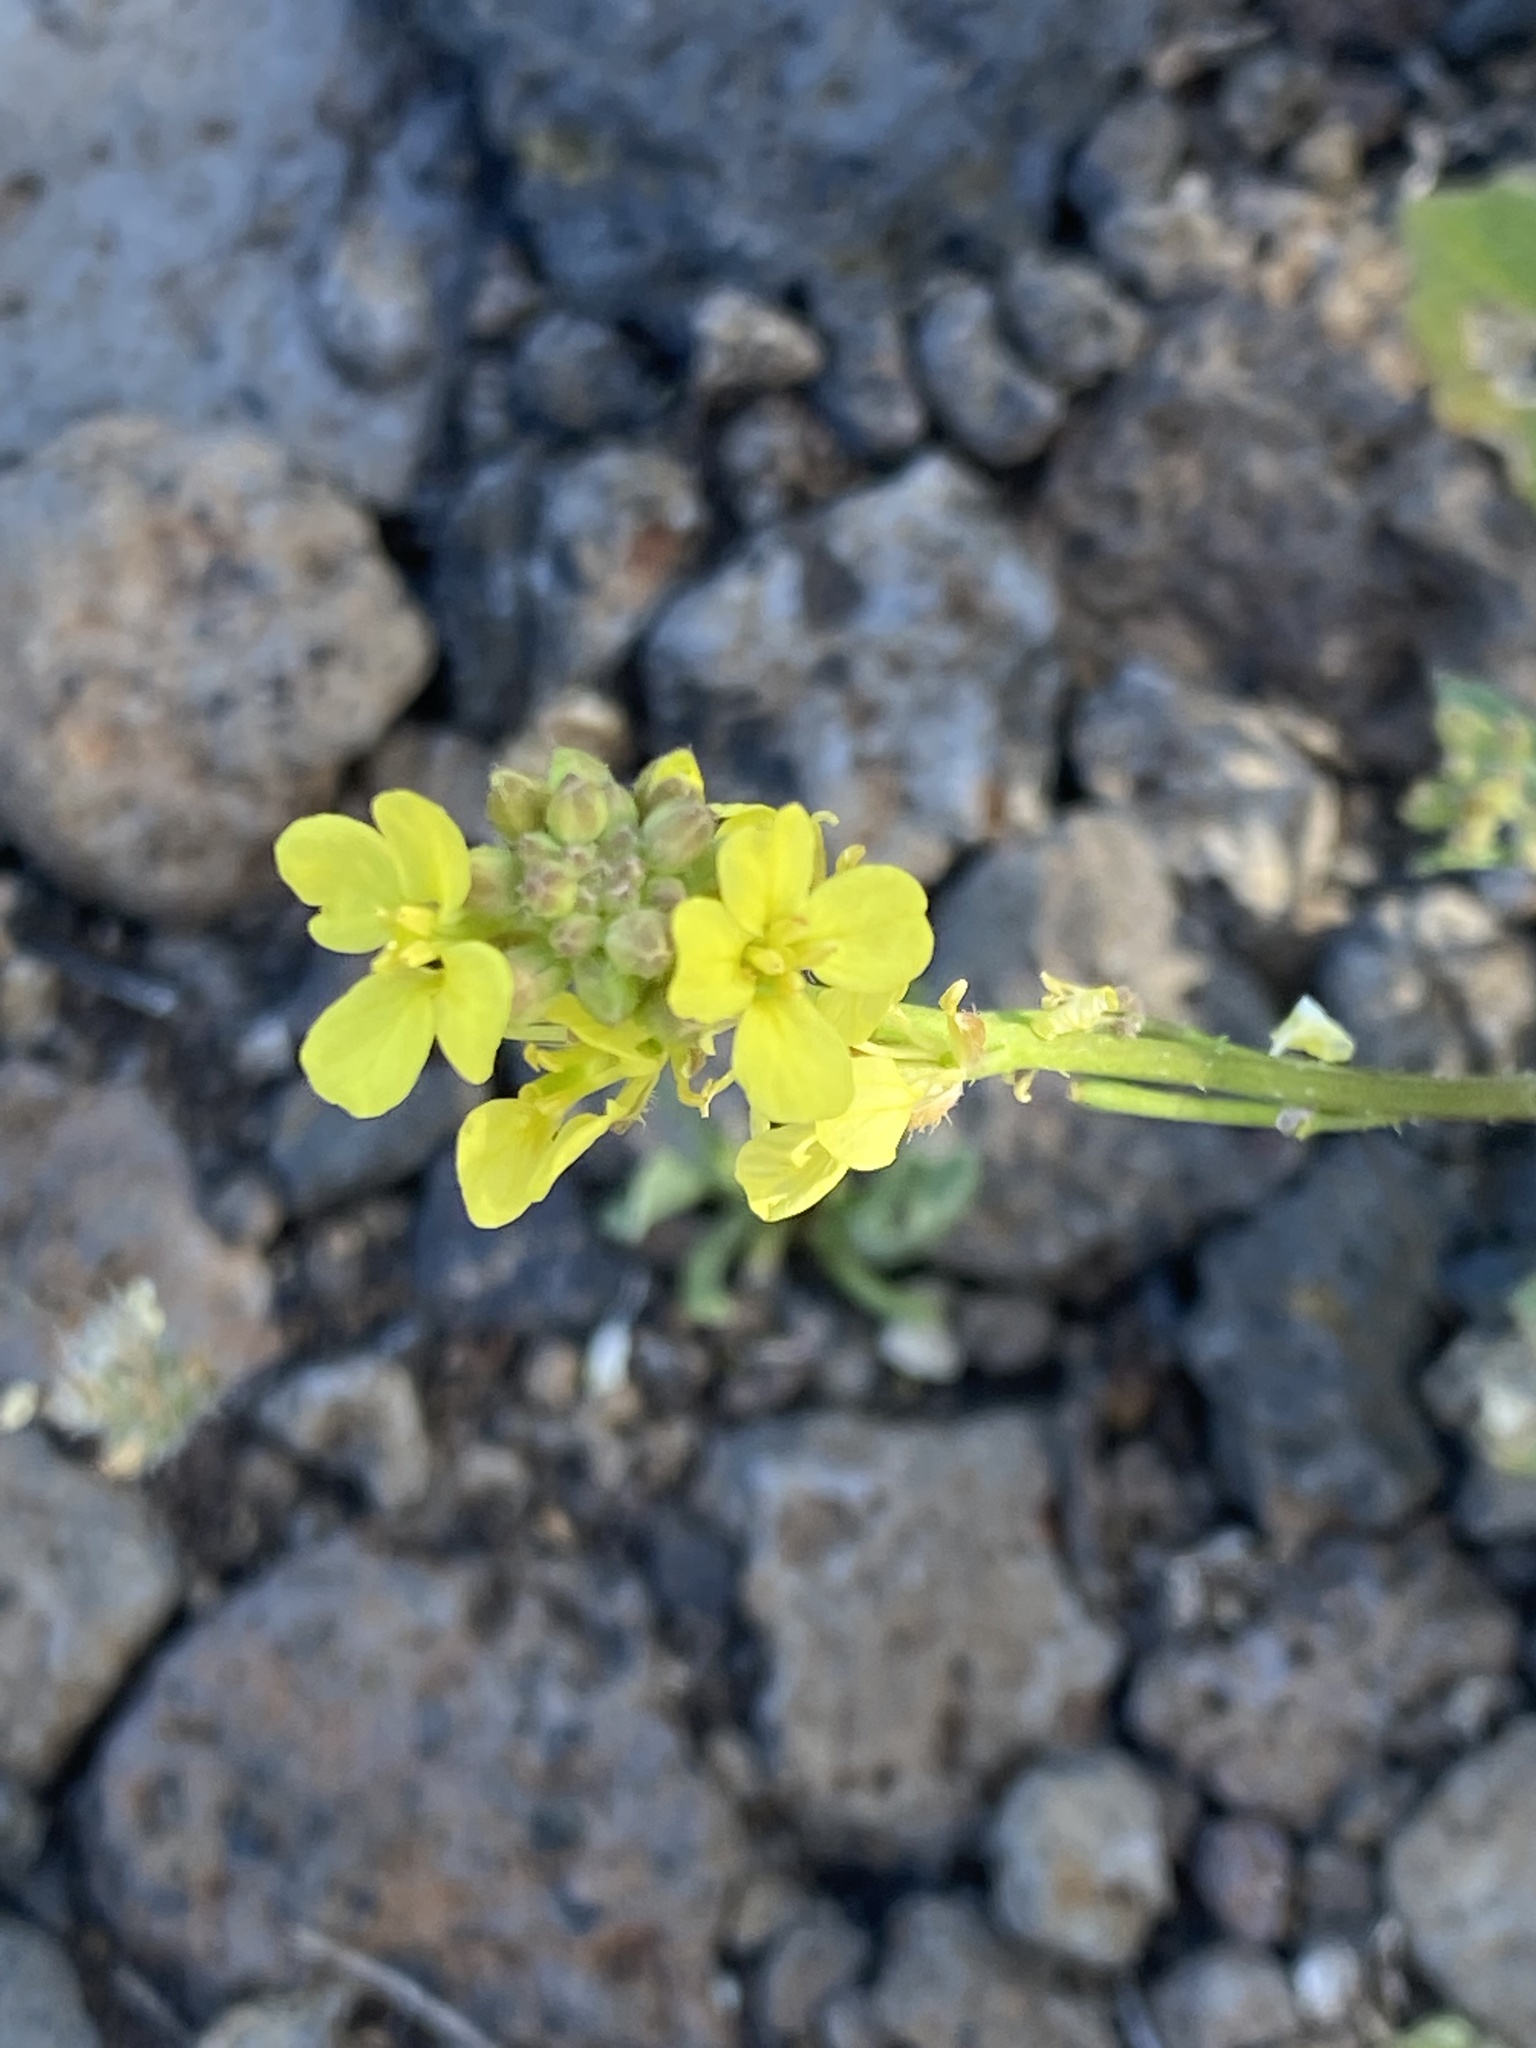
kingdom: Plantae
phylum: Tracheophyta
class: Magnoliopsida
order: Brassicales
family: Brassicaceae
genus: Erucastrum
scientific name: Erucastrum canariense
